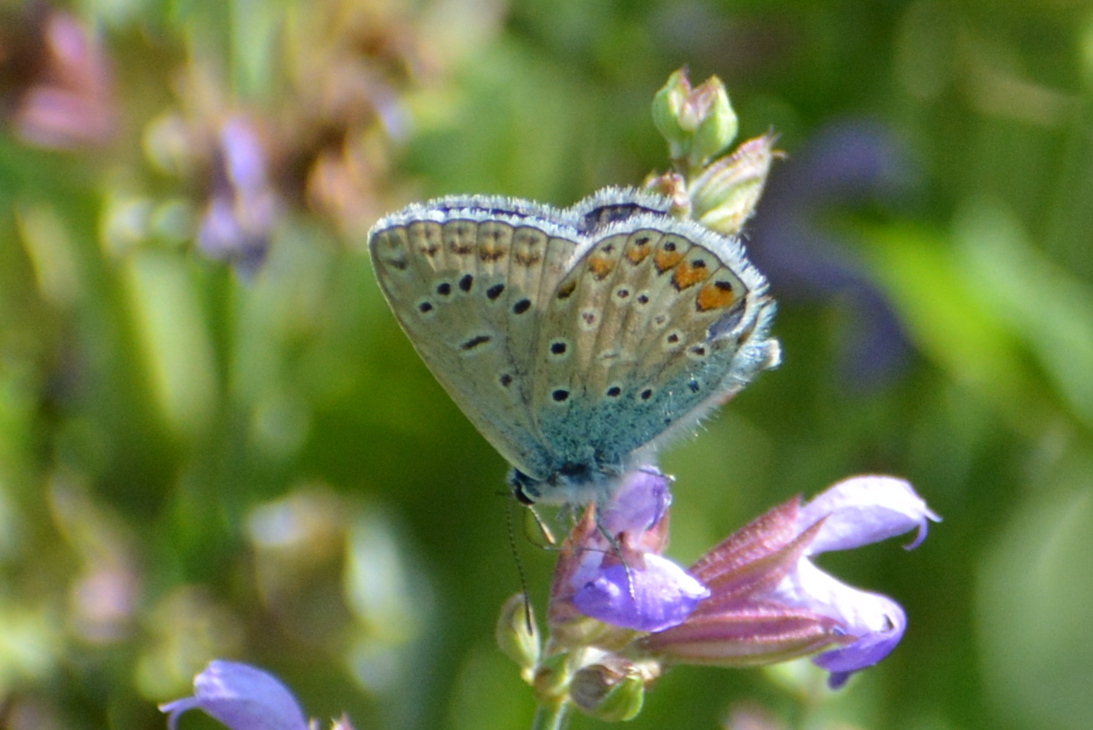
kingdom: Animalia
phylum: Arthropoda
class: Insecta
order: Lepidoptera
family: Lycaenidae
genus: Polyommatus
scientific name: Polyommatus icarus
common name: Common blue
